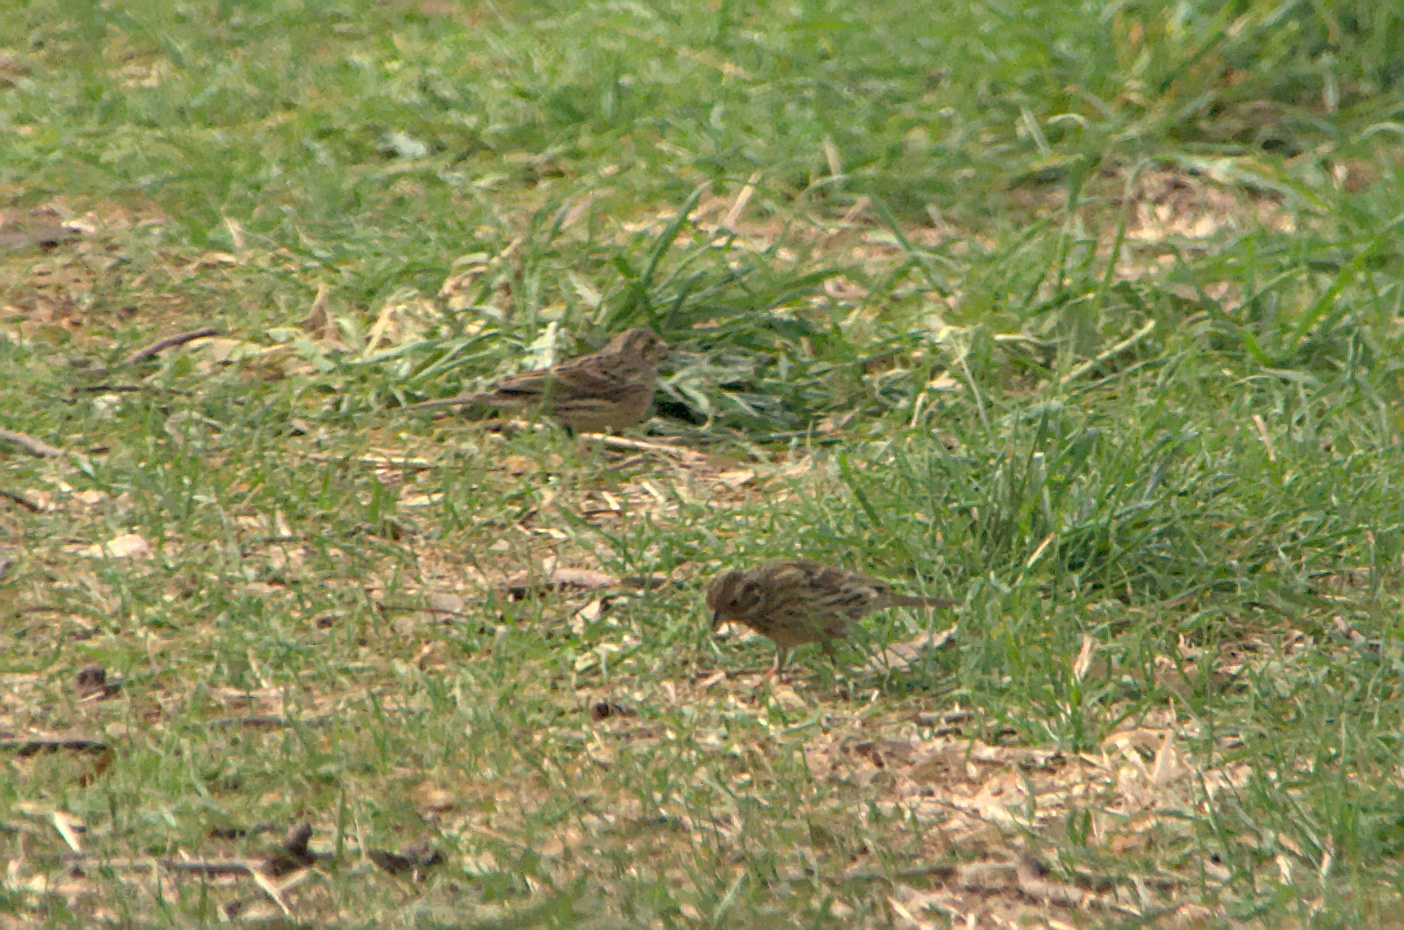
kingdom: Animalia
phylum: Chordata
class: Aves
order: Passeriformes
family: Emberizidae
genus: Emberiza
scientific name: Emberiza cirlus
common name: Cirl bunting
